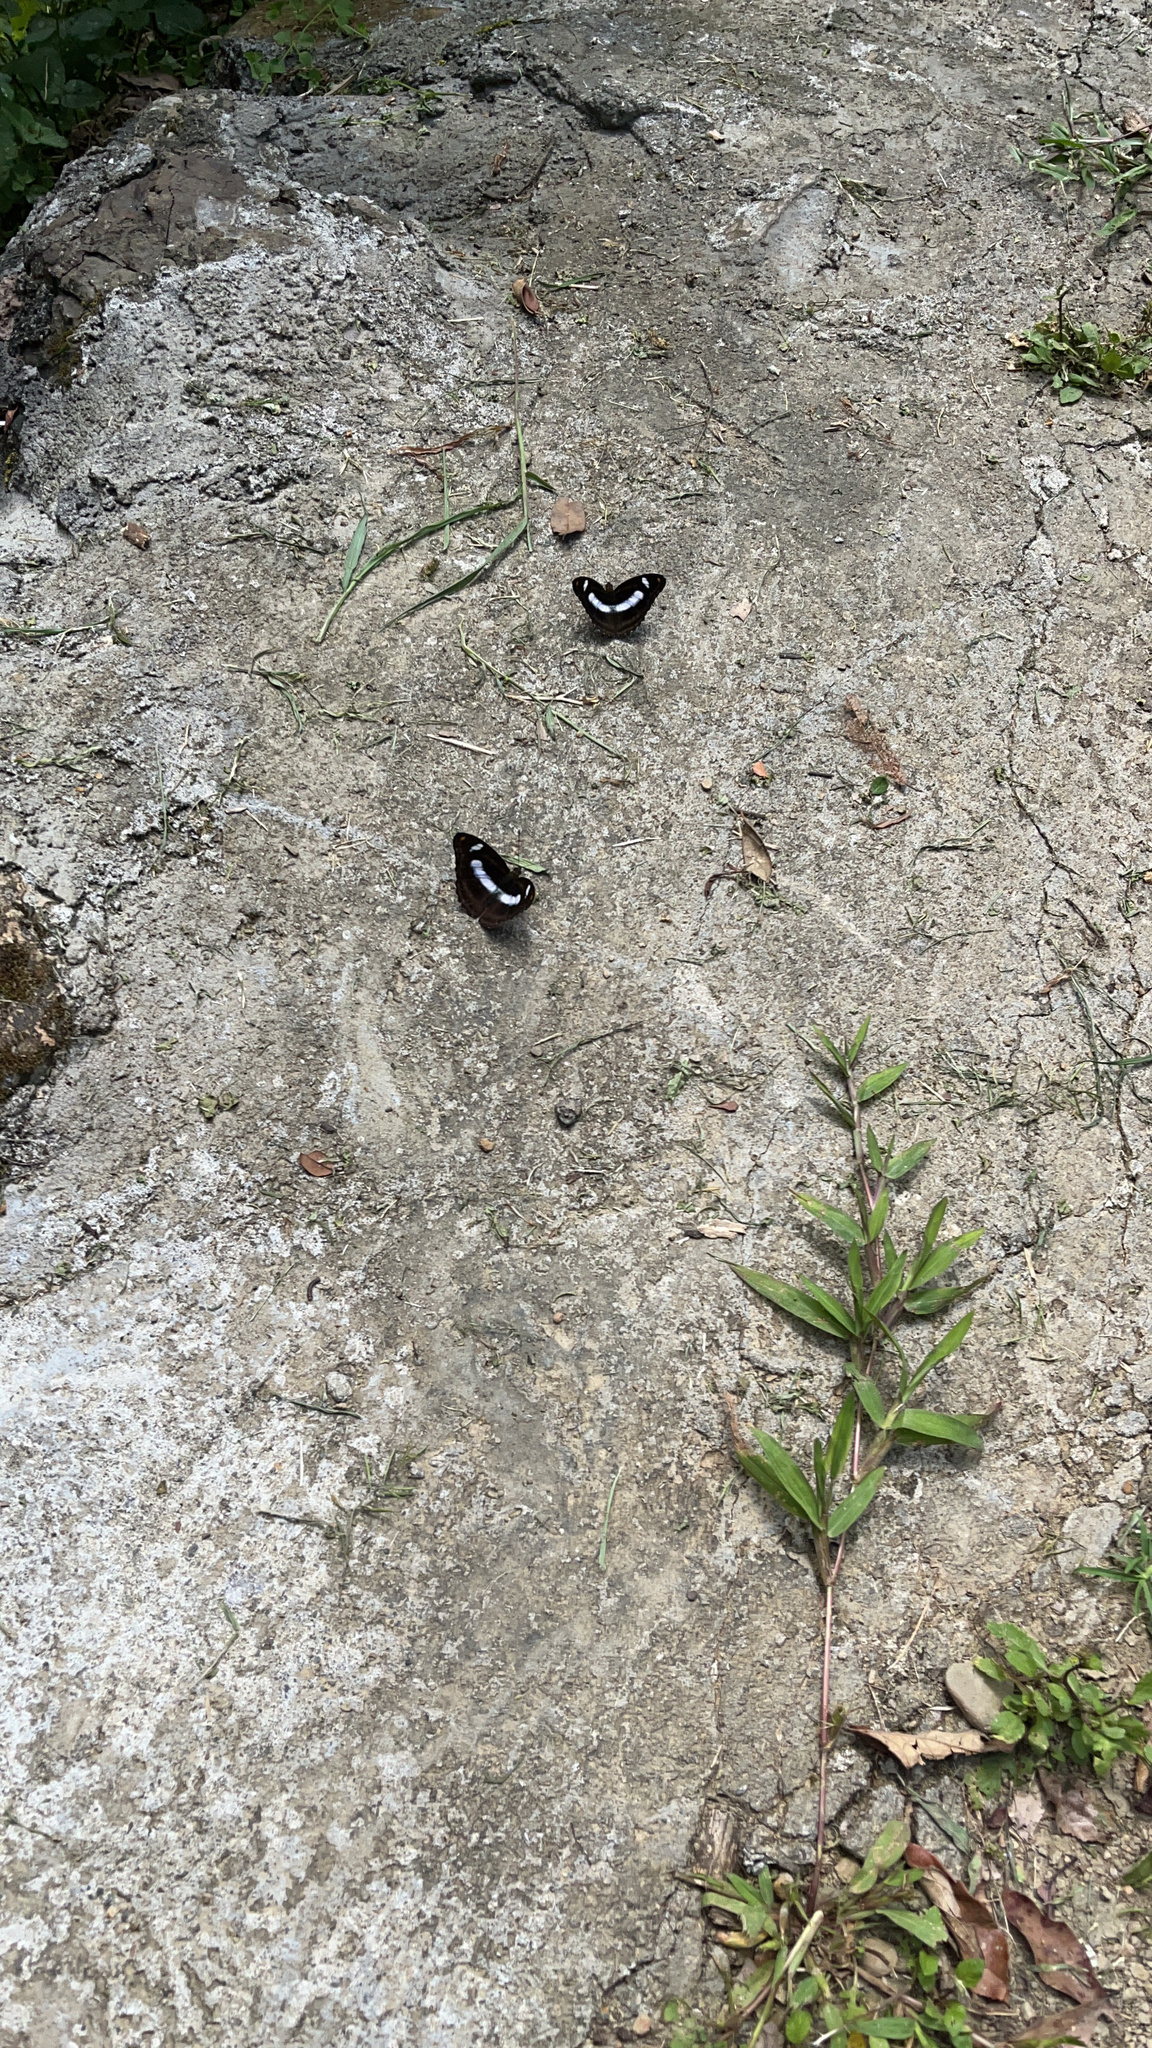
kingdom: Animalia
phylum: Arthropoda
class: Insecta
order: Lepidoptera
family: Nymphalidae
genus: Pantoporia
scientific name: Pantoporia cama
